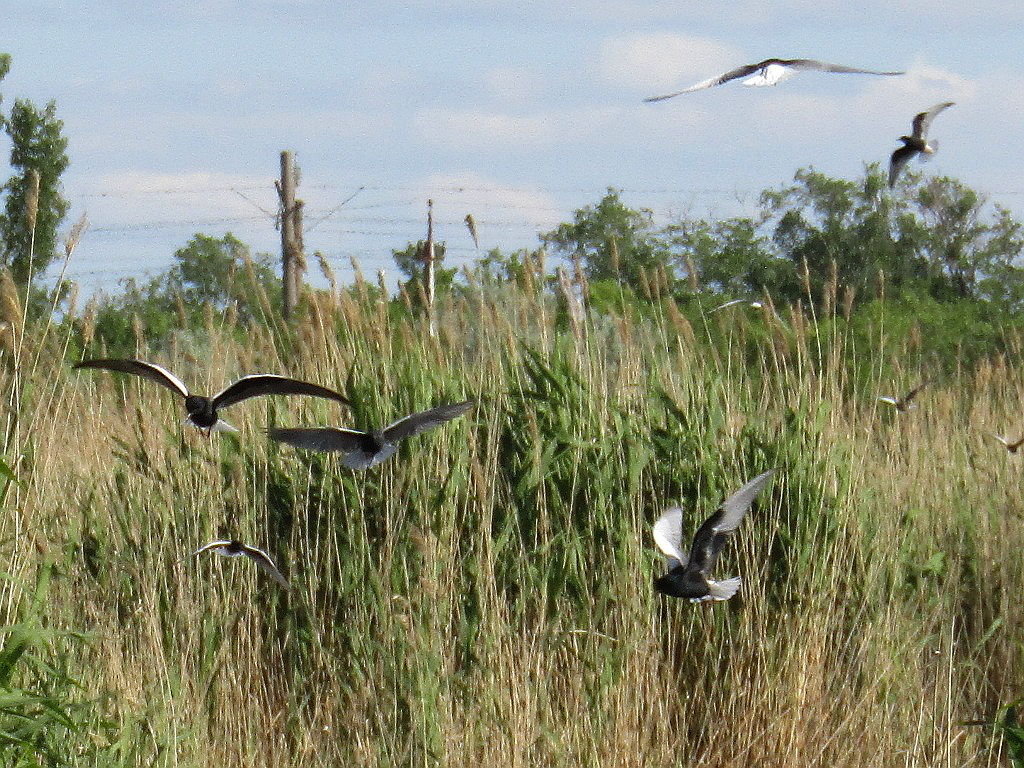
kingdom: Animalia
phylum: Chordata
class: Aves
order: Charadriiformes
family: Laridae
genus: Chlidonias
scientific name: Chlidonias leucopterus
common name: White-winged tern
